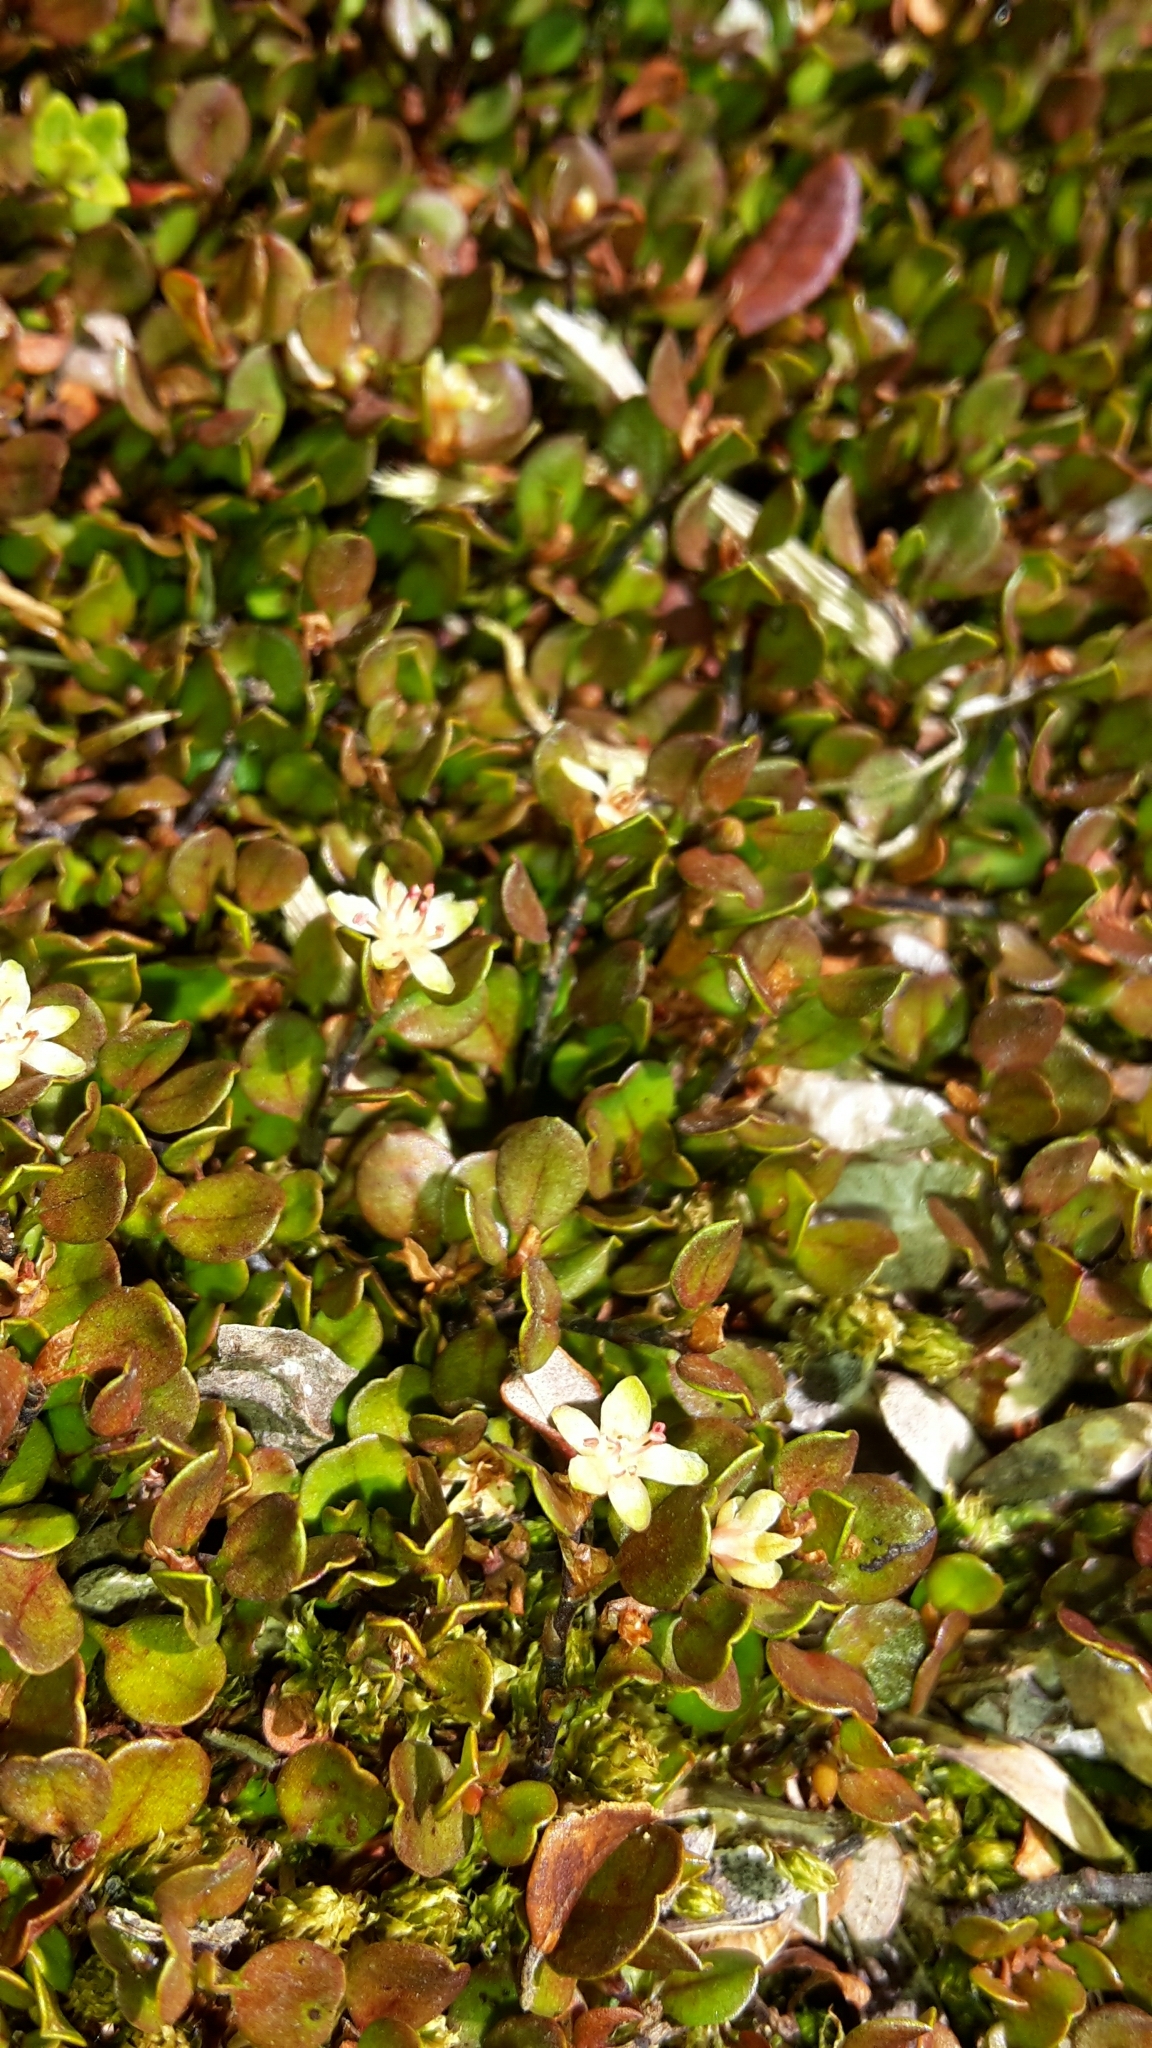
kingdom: Plantae
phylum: Tracheophyta
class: Magnoliopsida
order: Caryophyllales
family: Polygonaceae
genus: Muehlenbeckia
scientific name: Muehlenbeckia axillaris
